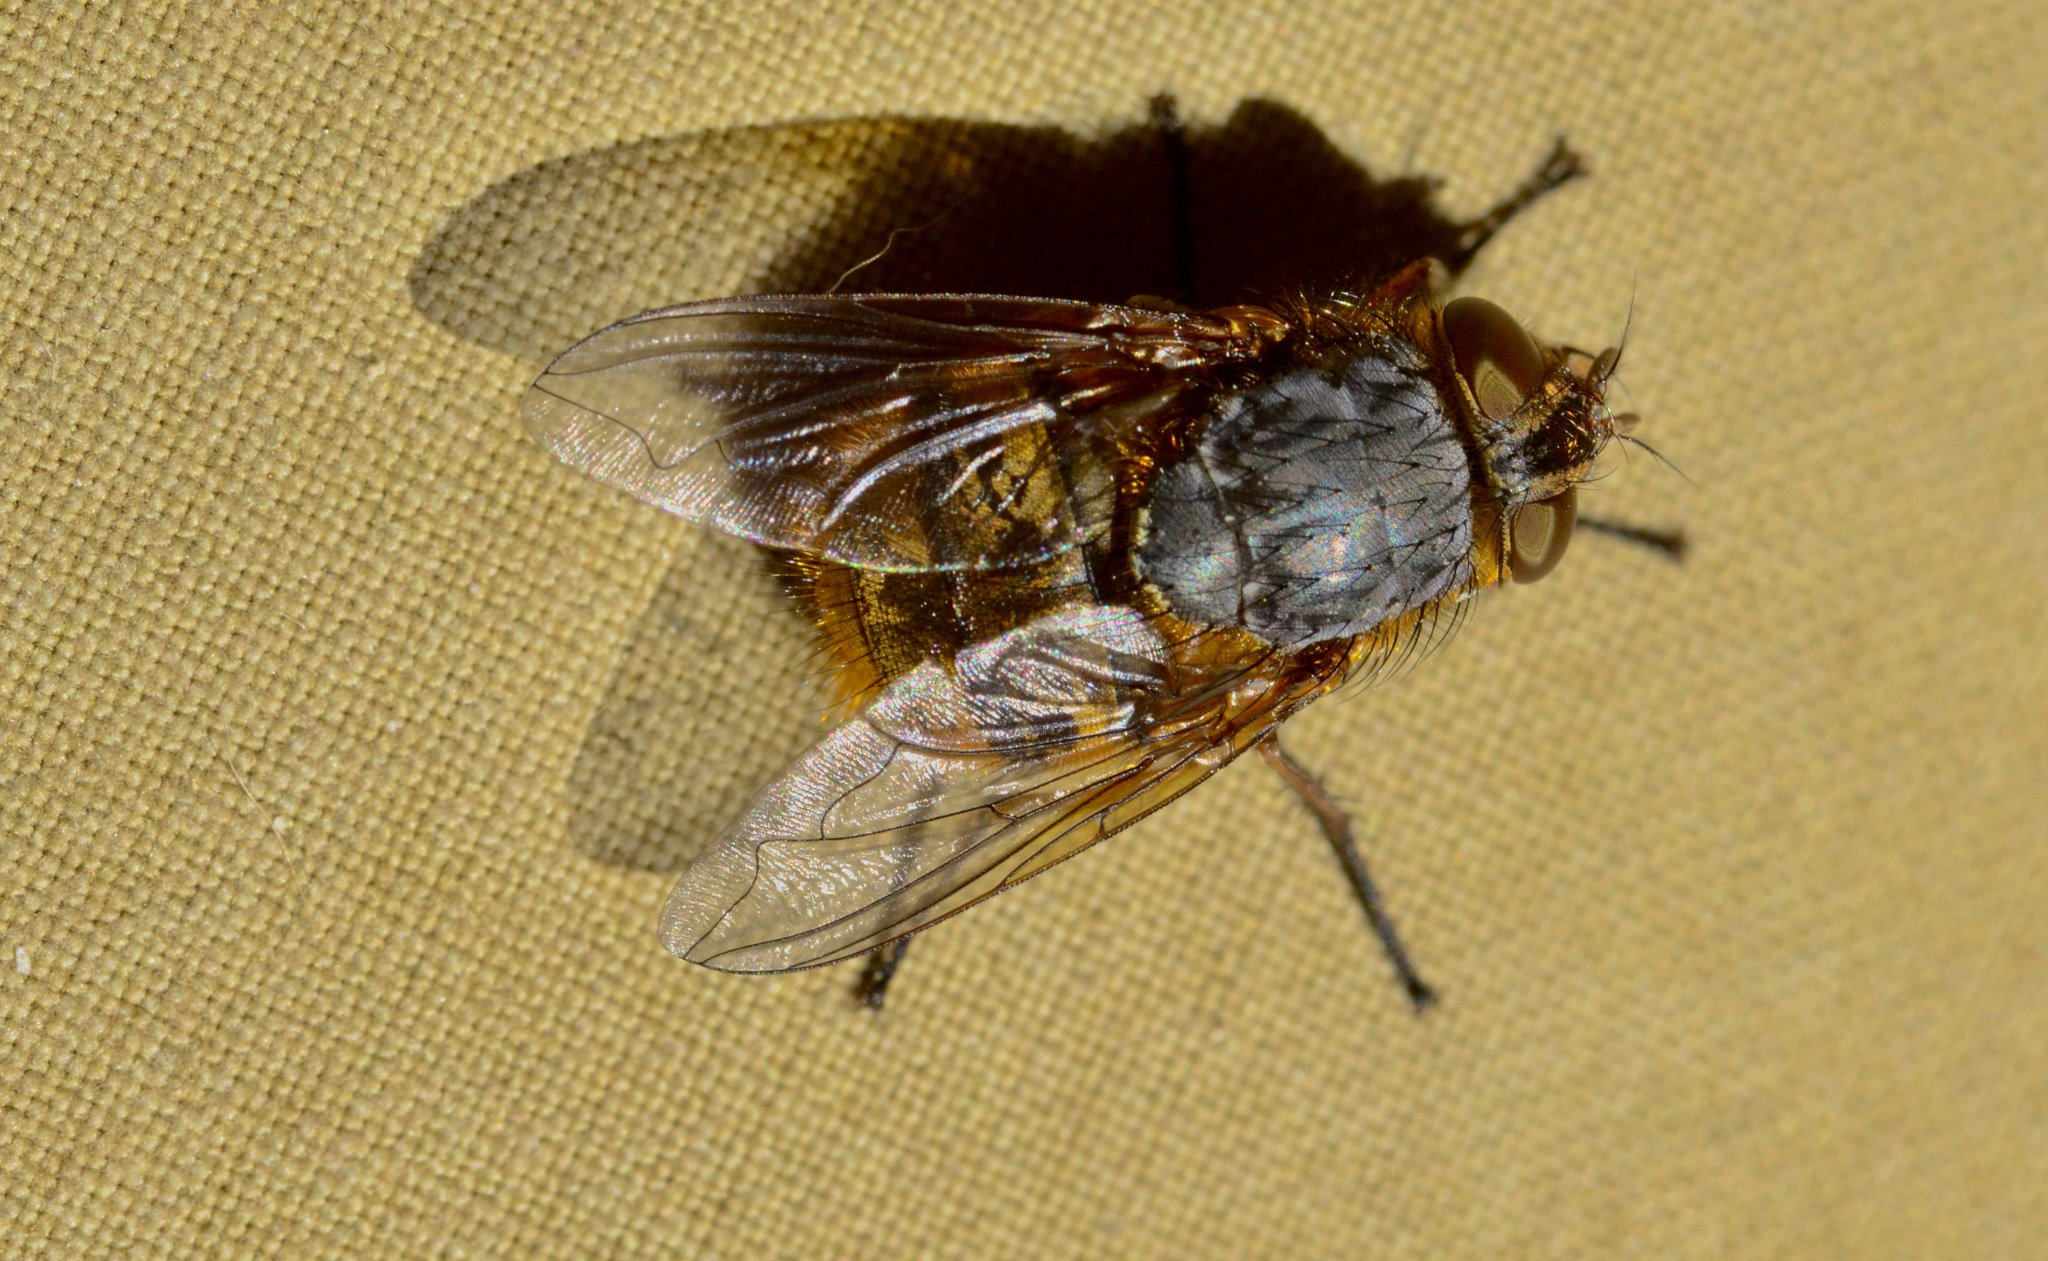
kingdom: Animalia
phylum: Arthropoda
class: Insecta
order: Diptera
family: Calliphoridae
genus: Calliphora
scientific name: Calliphora hilli
